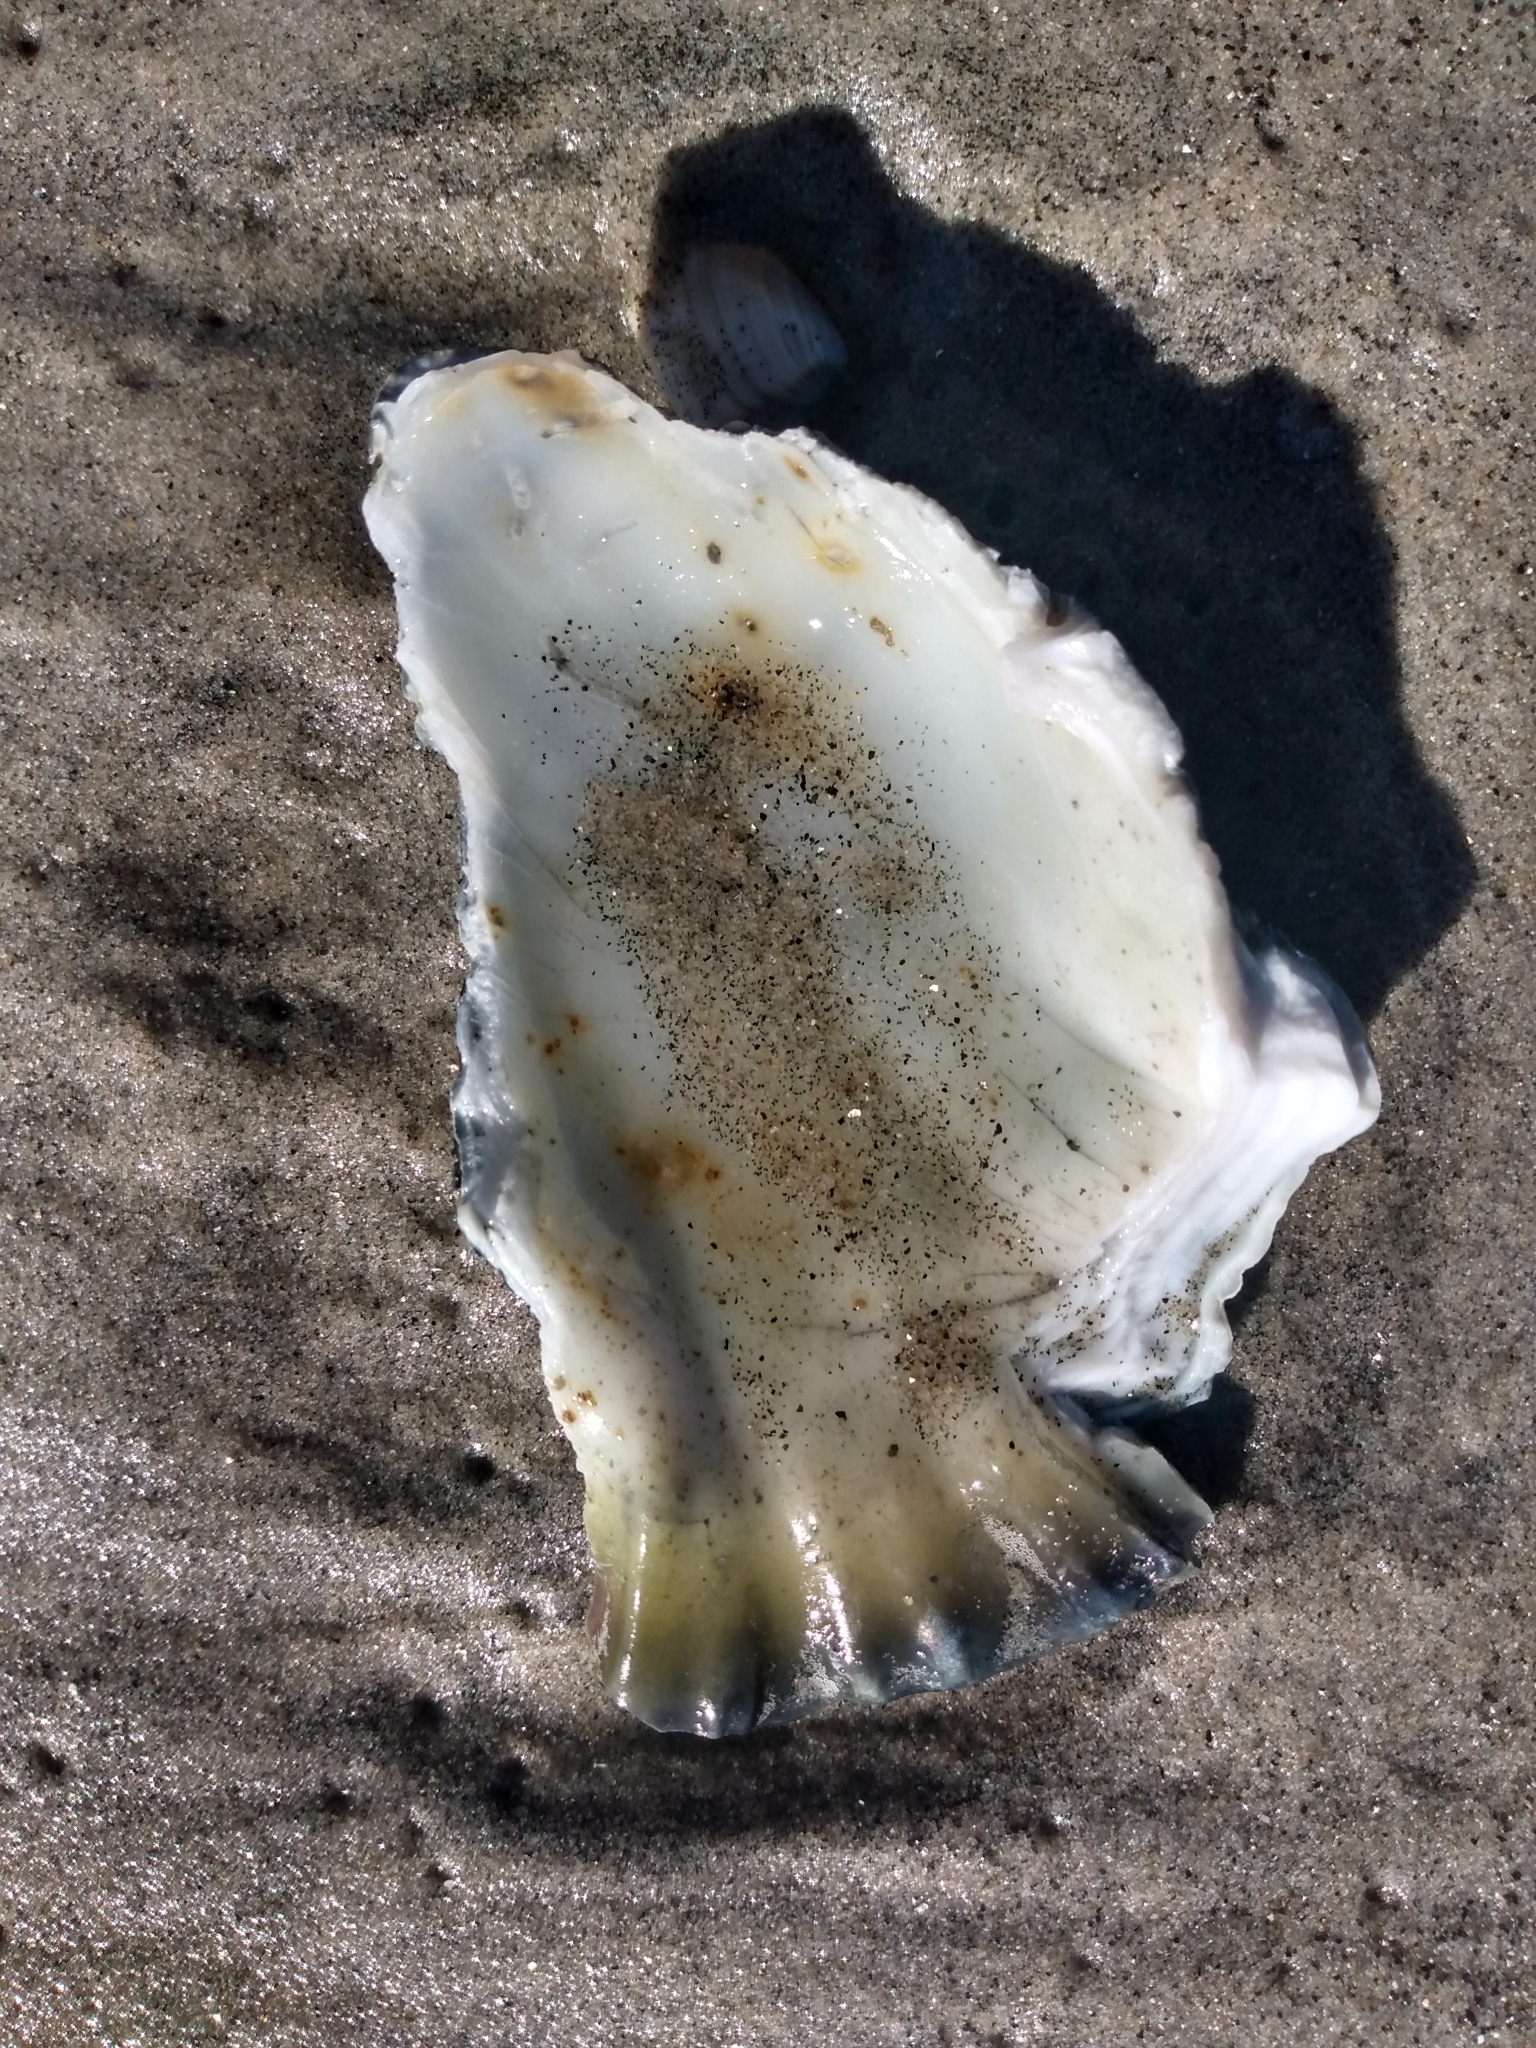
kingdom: Animalia
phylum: Mollusca
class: Gastropoda
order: Littorinimorpha
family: Bursidae
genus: Crossata
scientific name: Crossata californica
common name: California frogsnail
